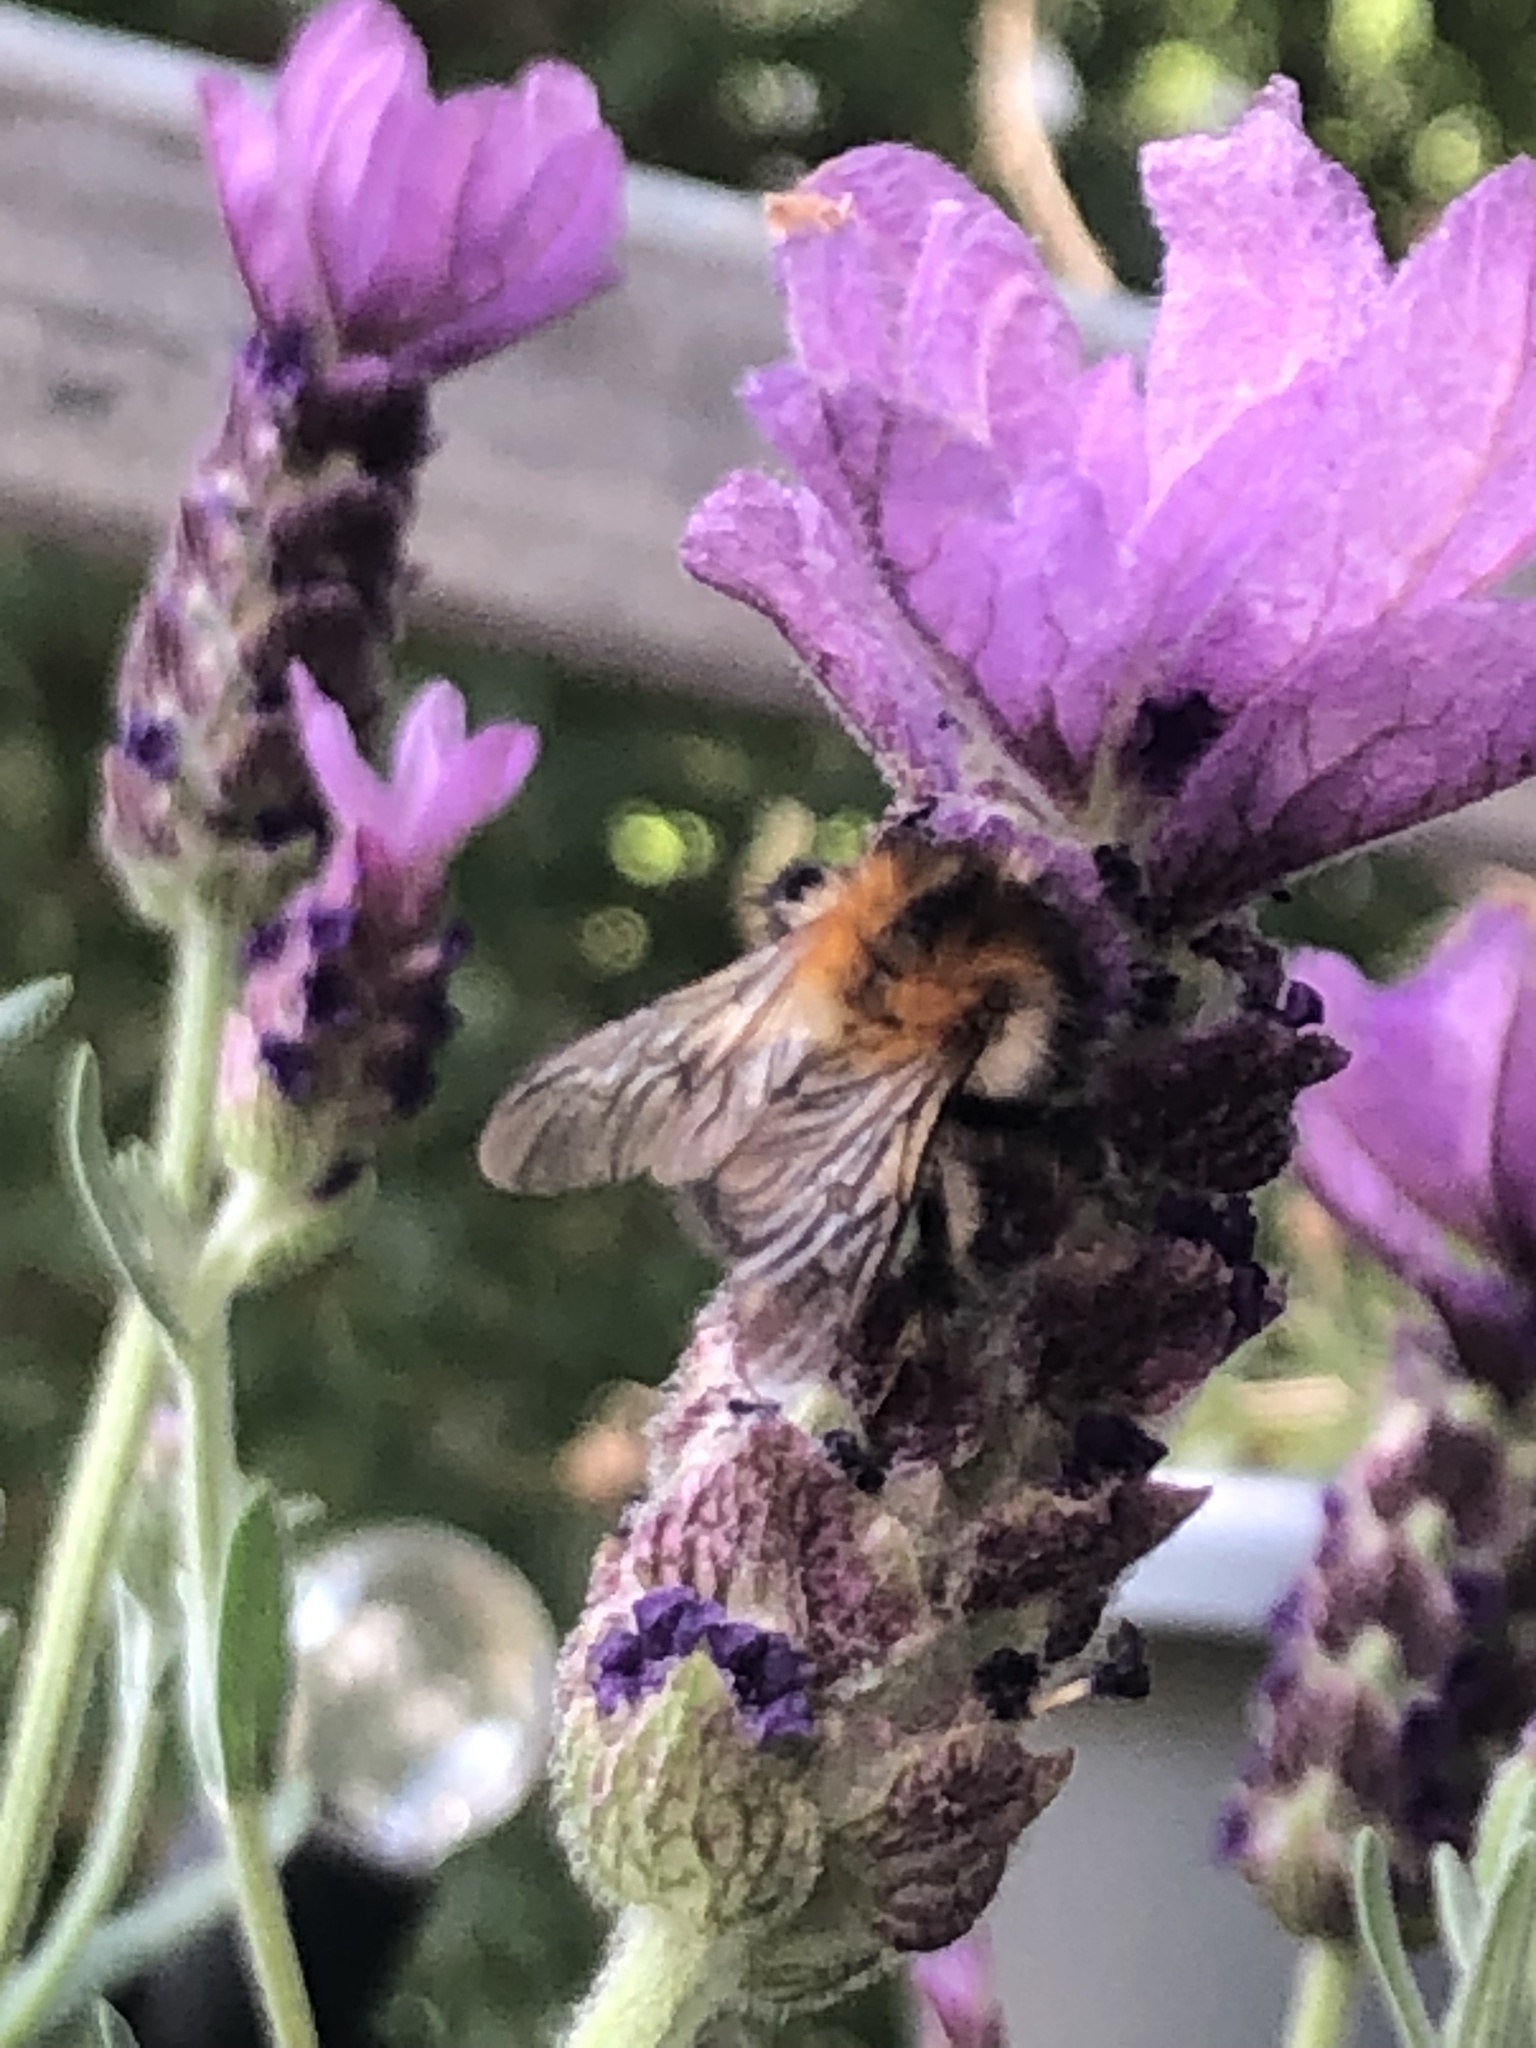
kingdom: Animalia
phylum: Arthropoda
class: Insecta
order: Hymenoptera
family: Apidae
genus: Bombus
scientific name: Bombus pascuorum
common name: Common carder bee
